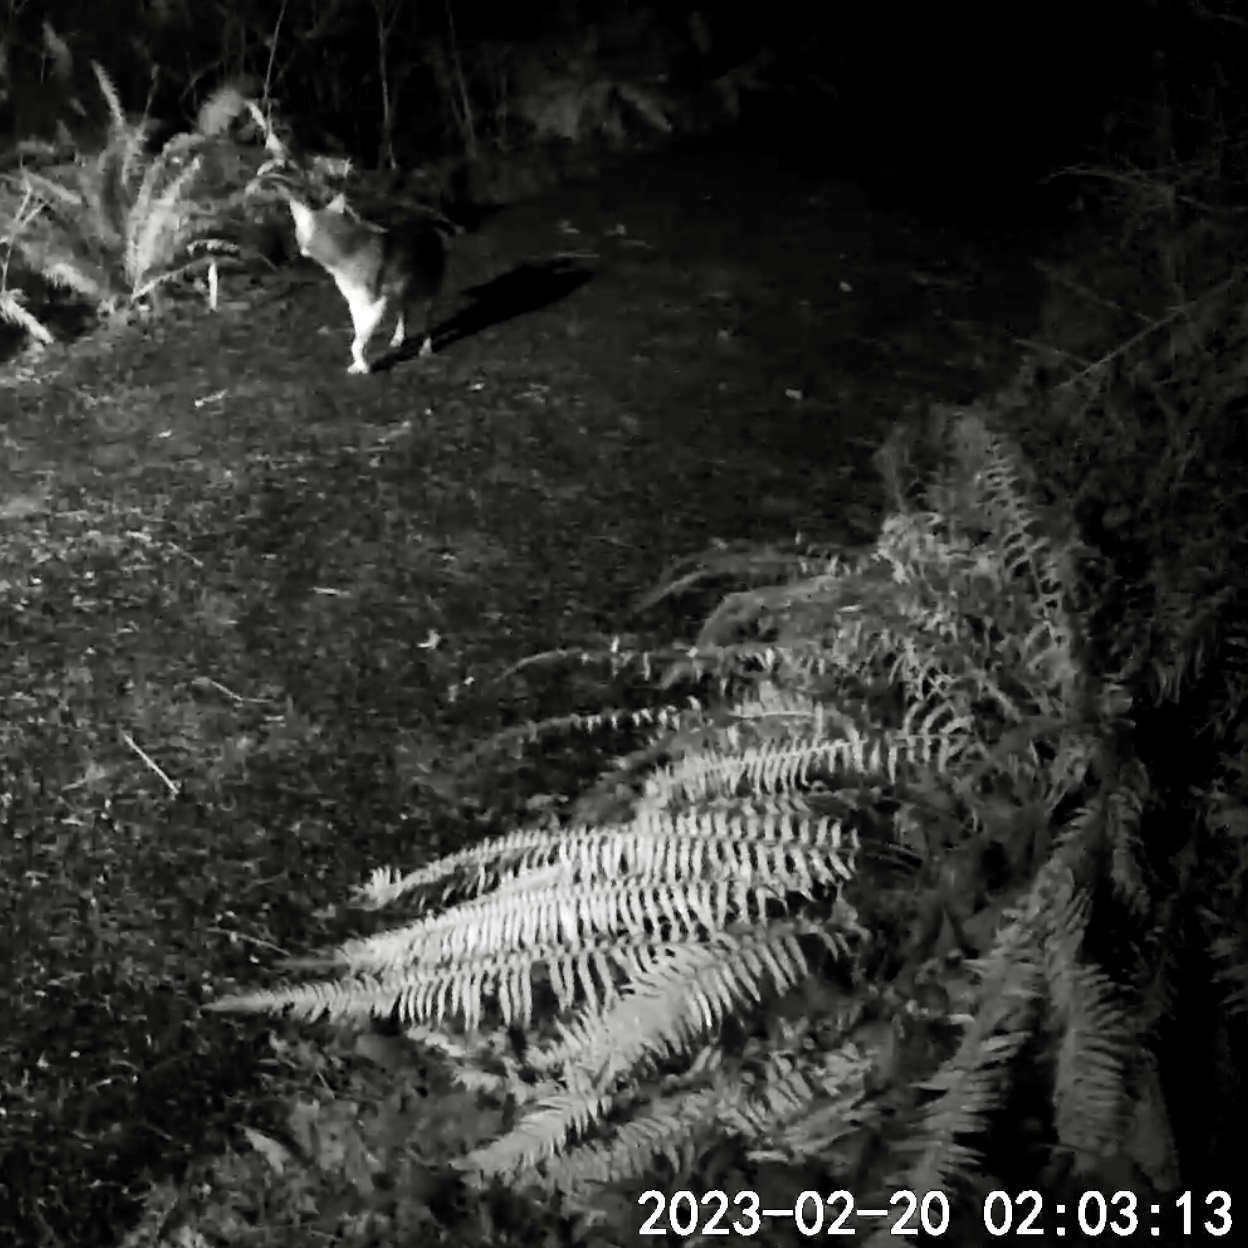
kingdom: Animalia
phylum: Chordata
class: Mammalia
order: Carnivora
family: Canidae
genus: Canis
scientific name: Canis latrans
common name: Coyote
